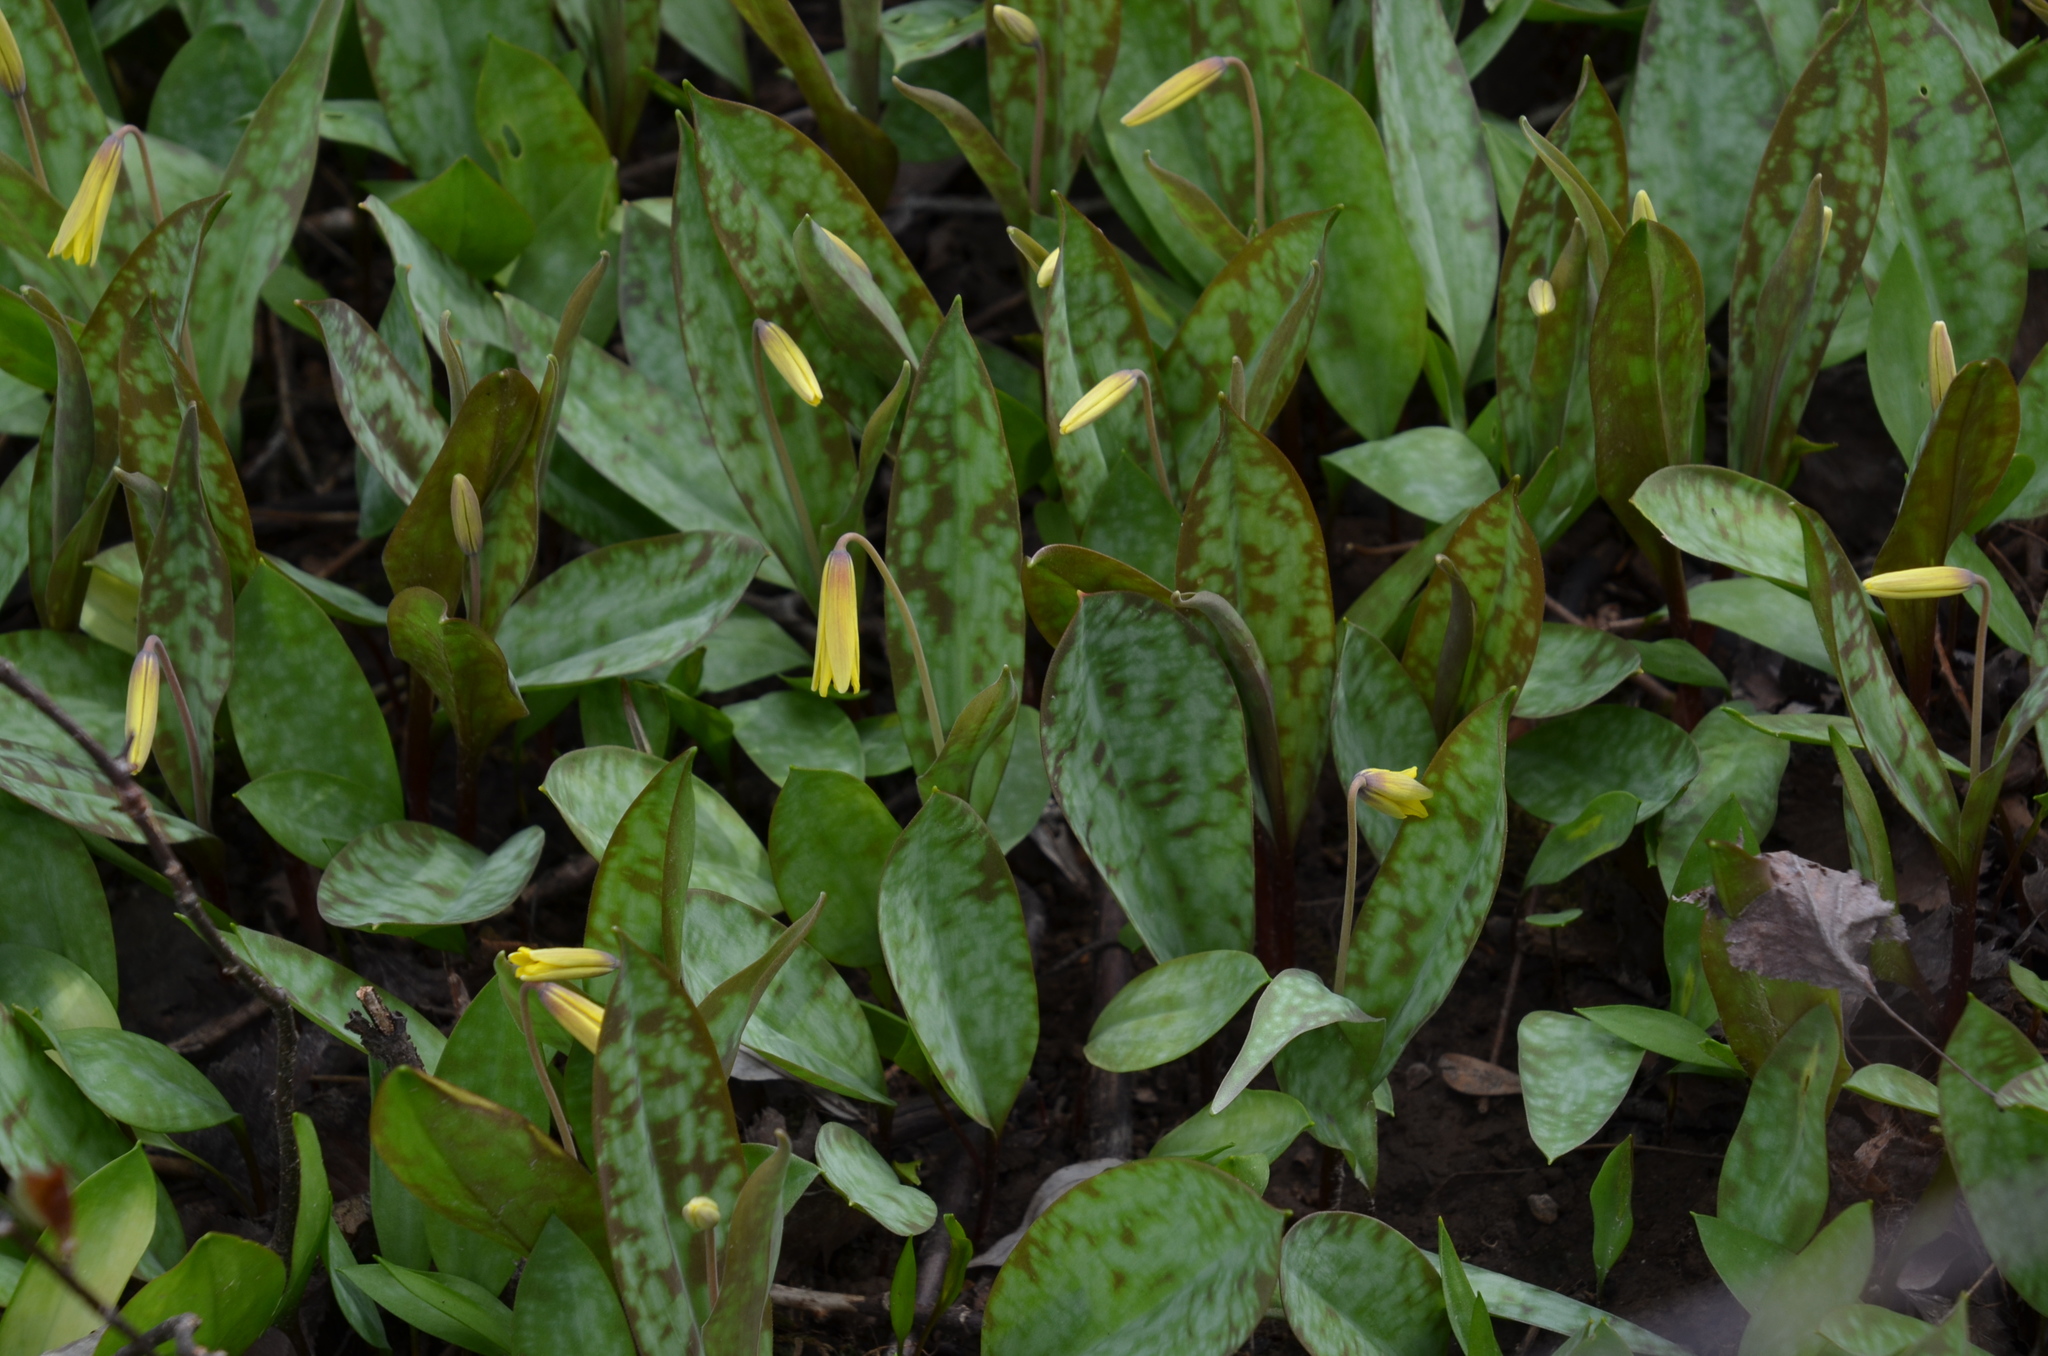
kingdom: Plantae
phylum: Tracheophyta
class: Liliopsida
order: Liliales
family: Liliaceae
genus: Erythronium
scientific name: Erythronium americanum
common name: Yellow adder's-tongue
